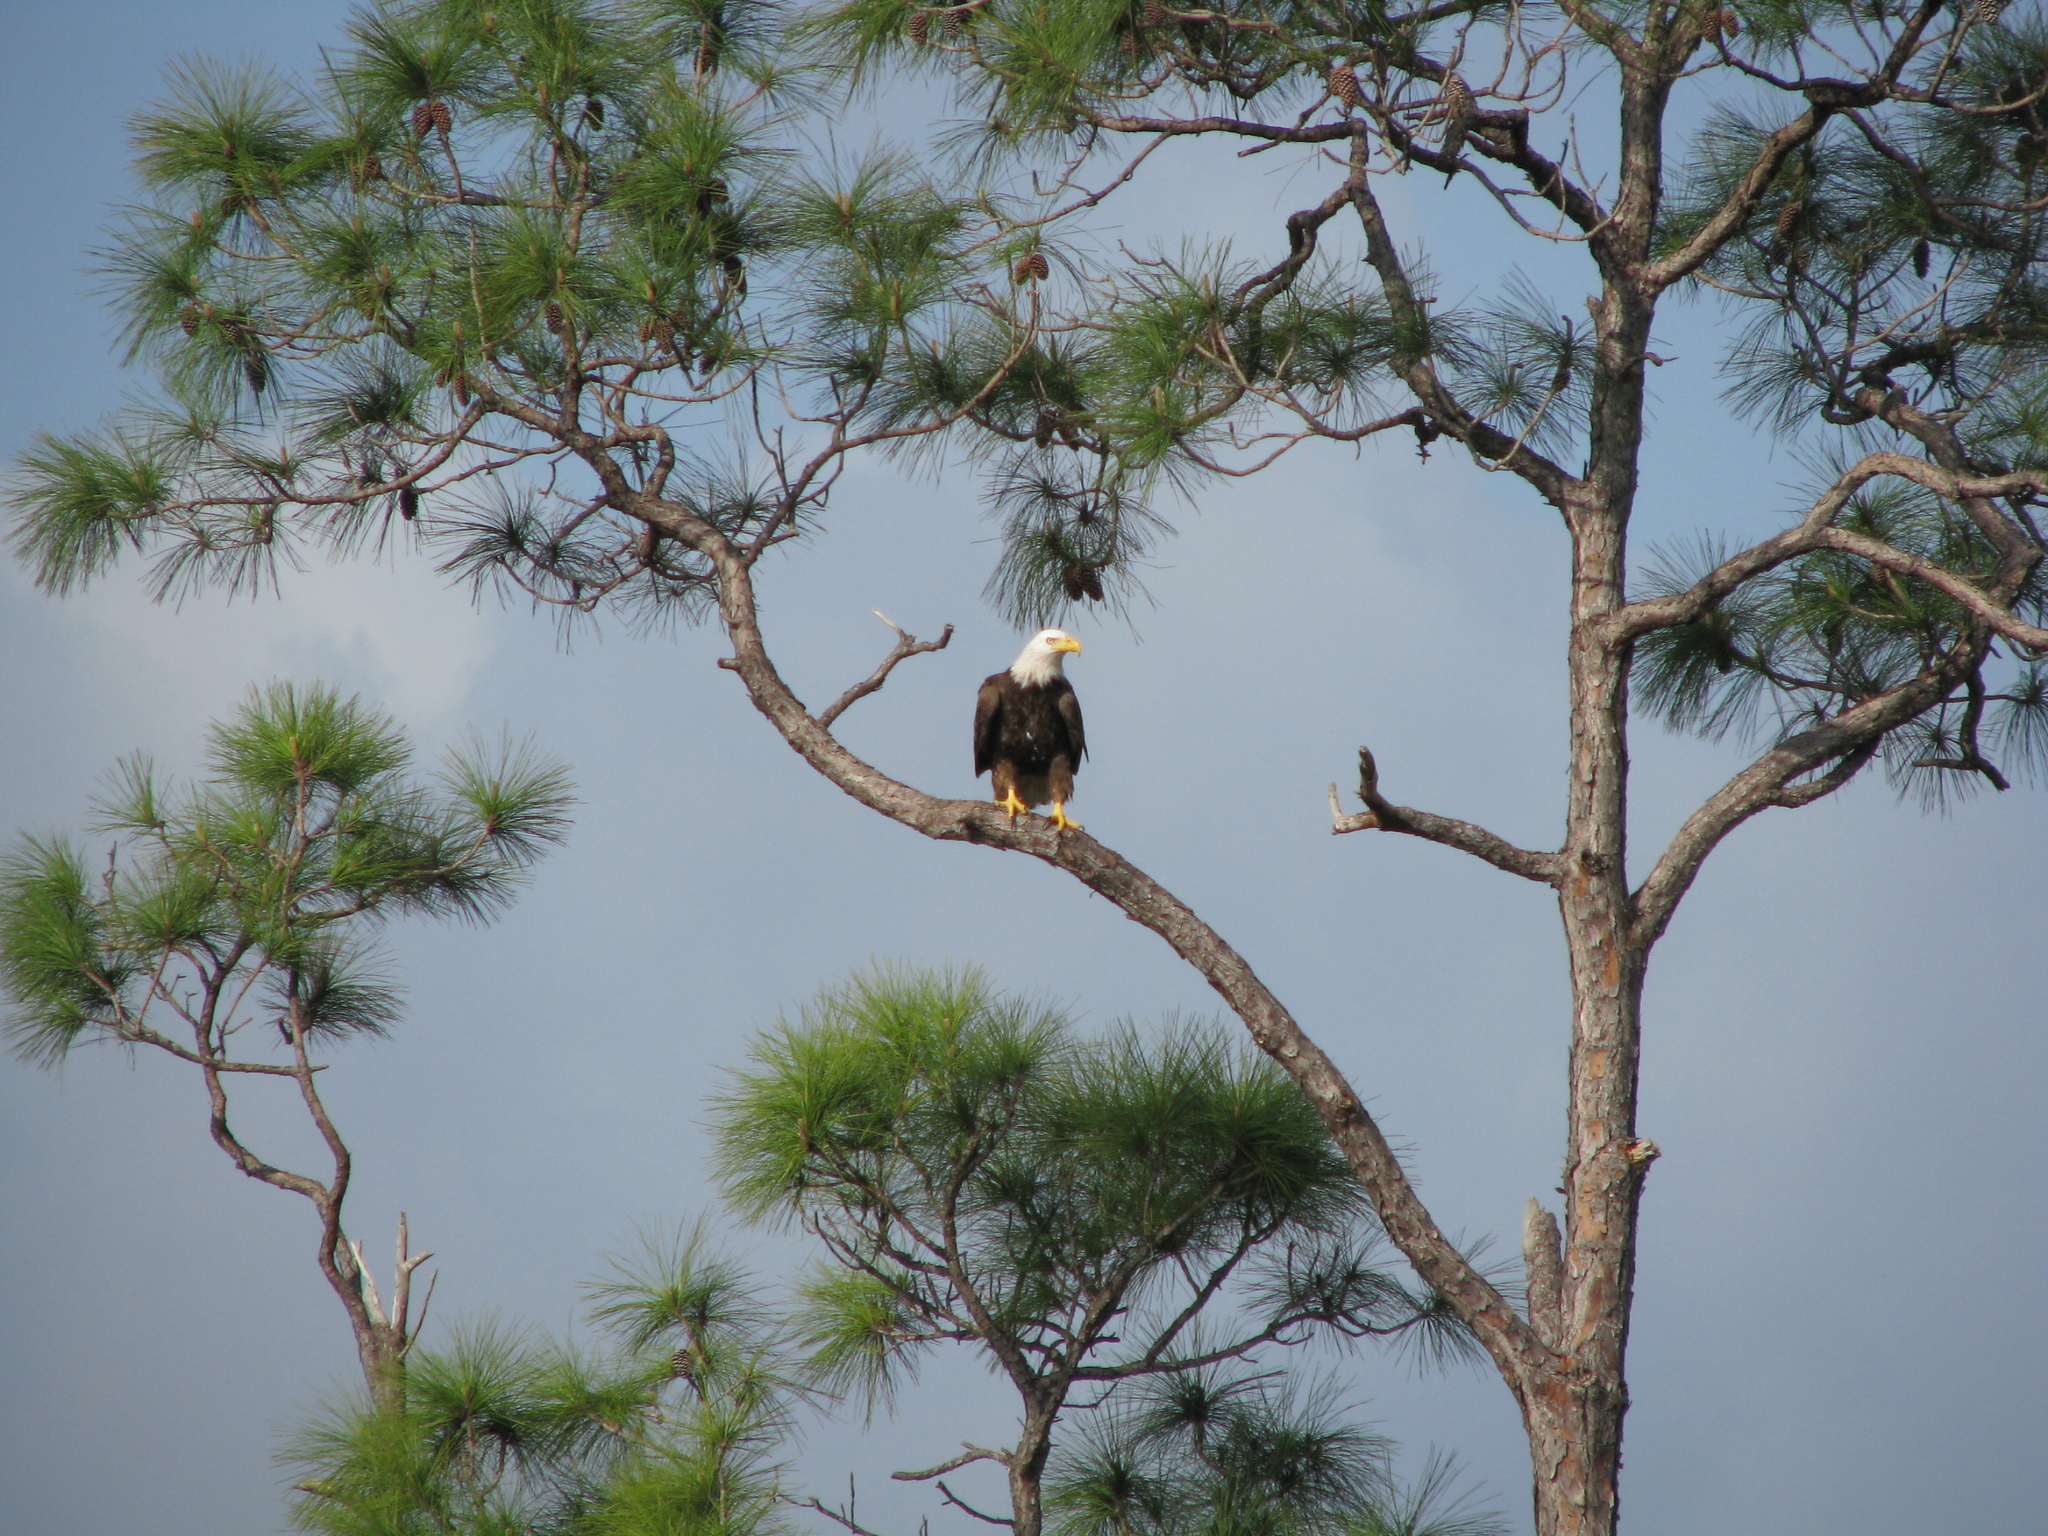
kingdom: Animalia
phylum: Chordata
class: Aves
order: Accipitriformes
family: Accipitridae
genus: Haliaeetus
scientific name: Haliaeetus leucocephalus
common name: Bald eagle
